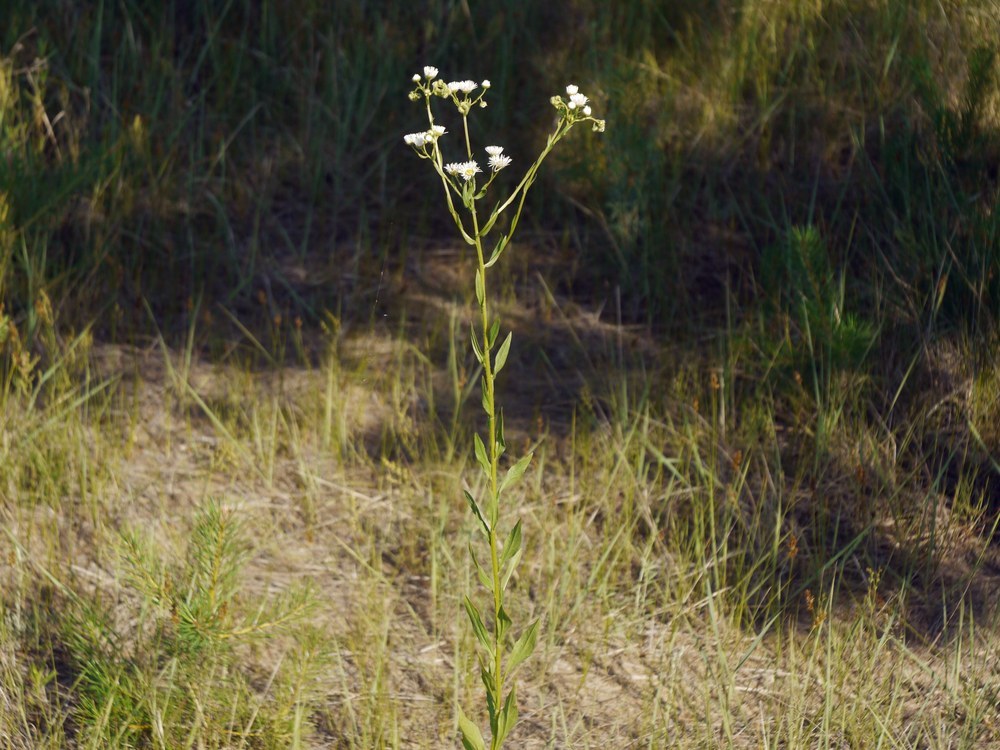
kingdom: Plantae
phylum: Tracheophyta
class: Magnoliopsida
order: Asterales
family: Asteraceae
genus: Erigeron
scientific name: Erigeron annuus
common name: Tall fleabane
